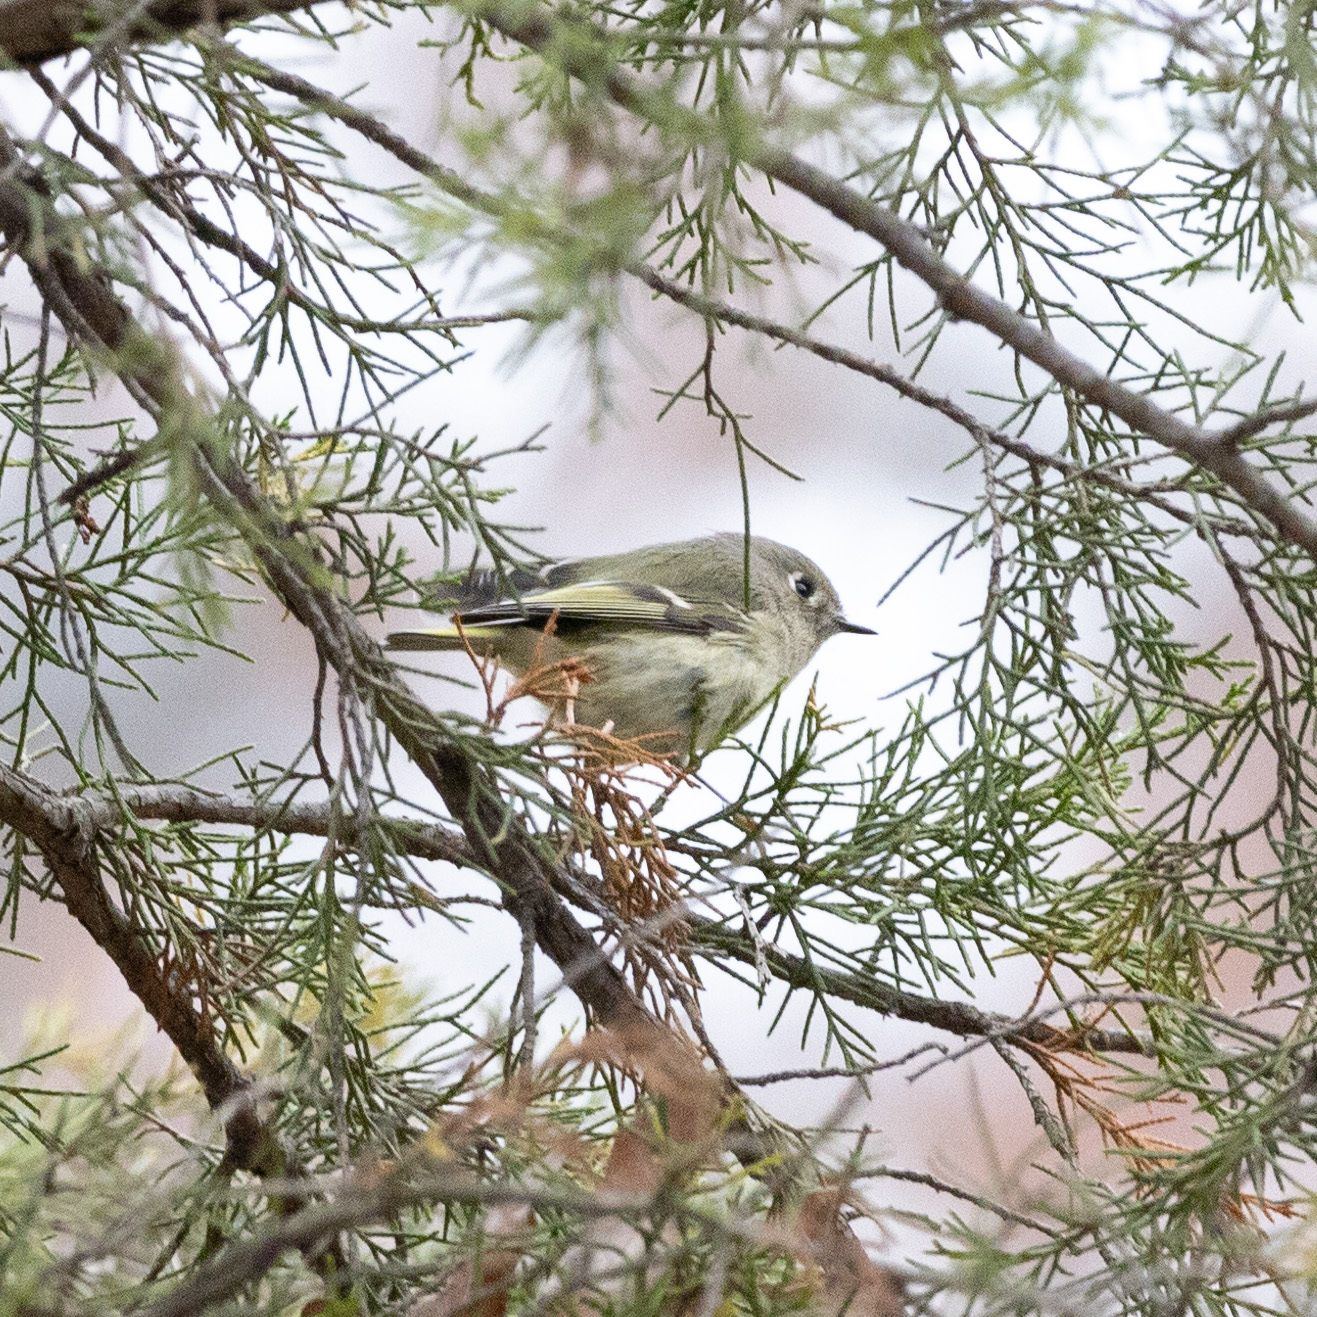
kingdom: Animalia
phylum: Chordata
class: Aves
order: Passeriformes
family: Regulidae
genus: Regulus
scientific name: Regulus calendula
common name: Ruby-crowned kinglet
